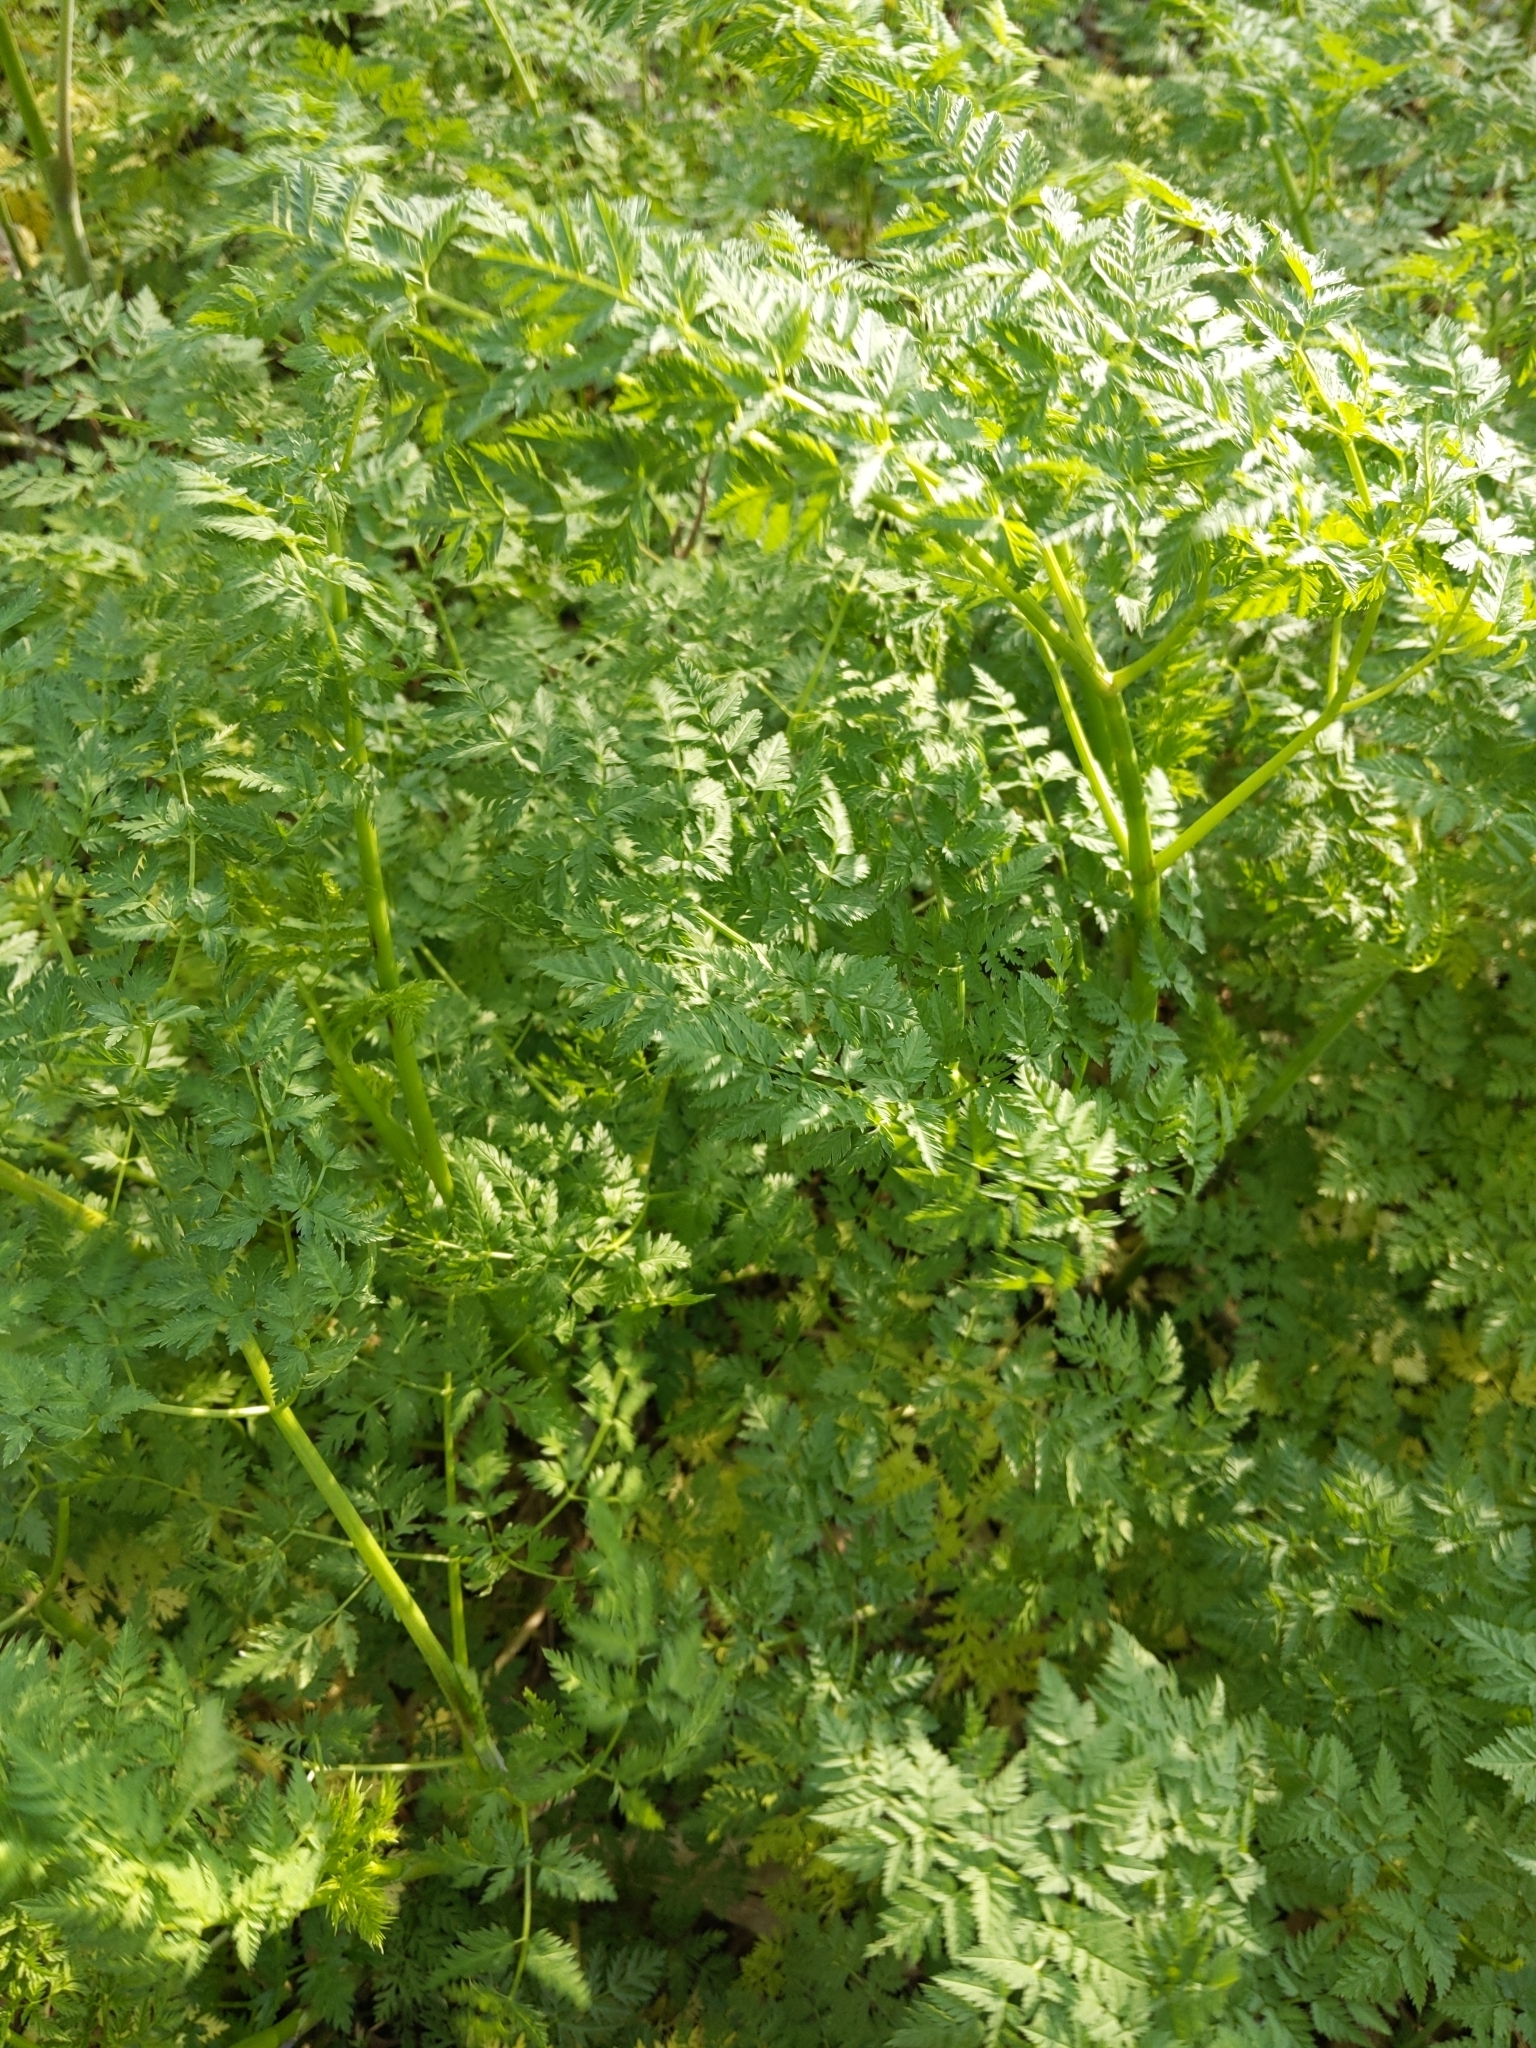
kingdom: Plantae
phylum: Tracheophyta
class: Magnoliopsida
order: Apiales
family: Apiaceae
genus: Conium
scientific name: Conium maculatum
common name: Hemlock
